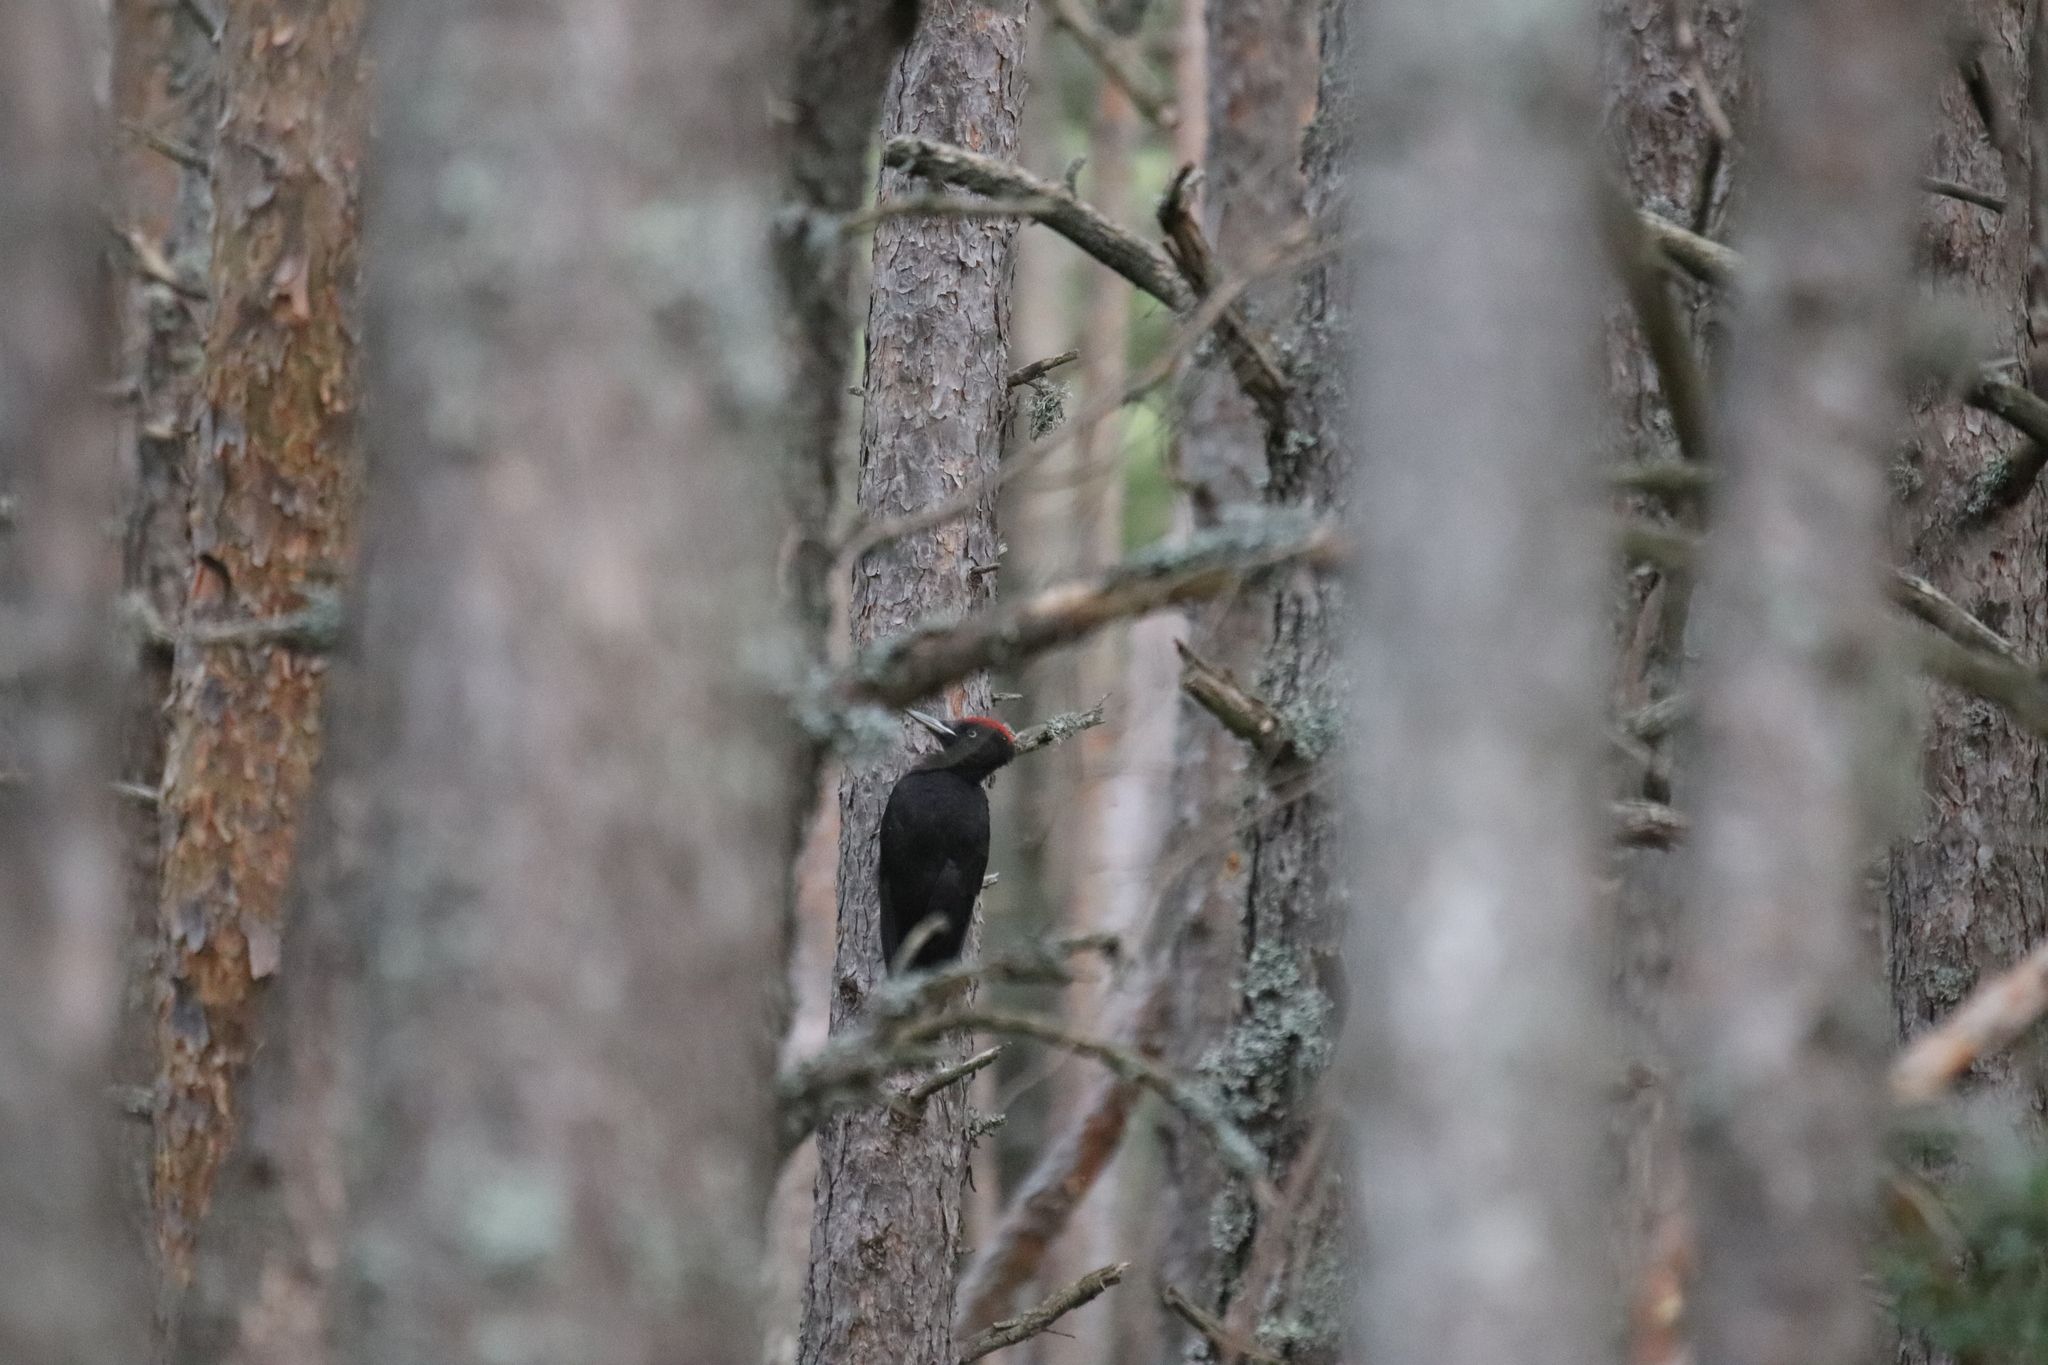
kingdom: Animalia
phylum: Chordata
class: Aves
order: Piciformes
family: Picidae
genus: Dryocopus
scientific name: Dryocopus martius
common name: Black woodpecker
